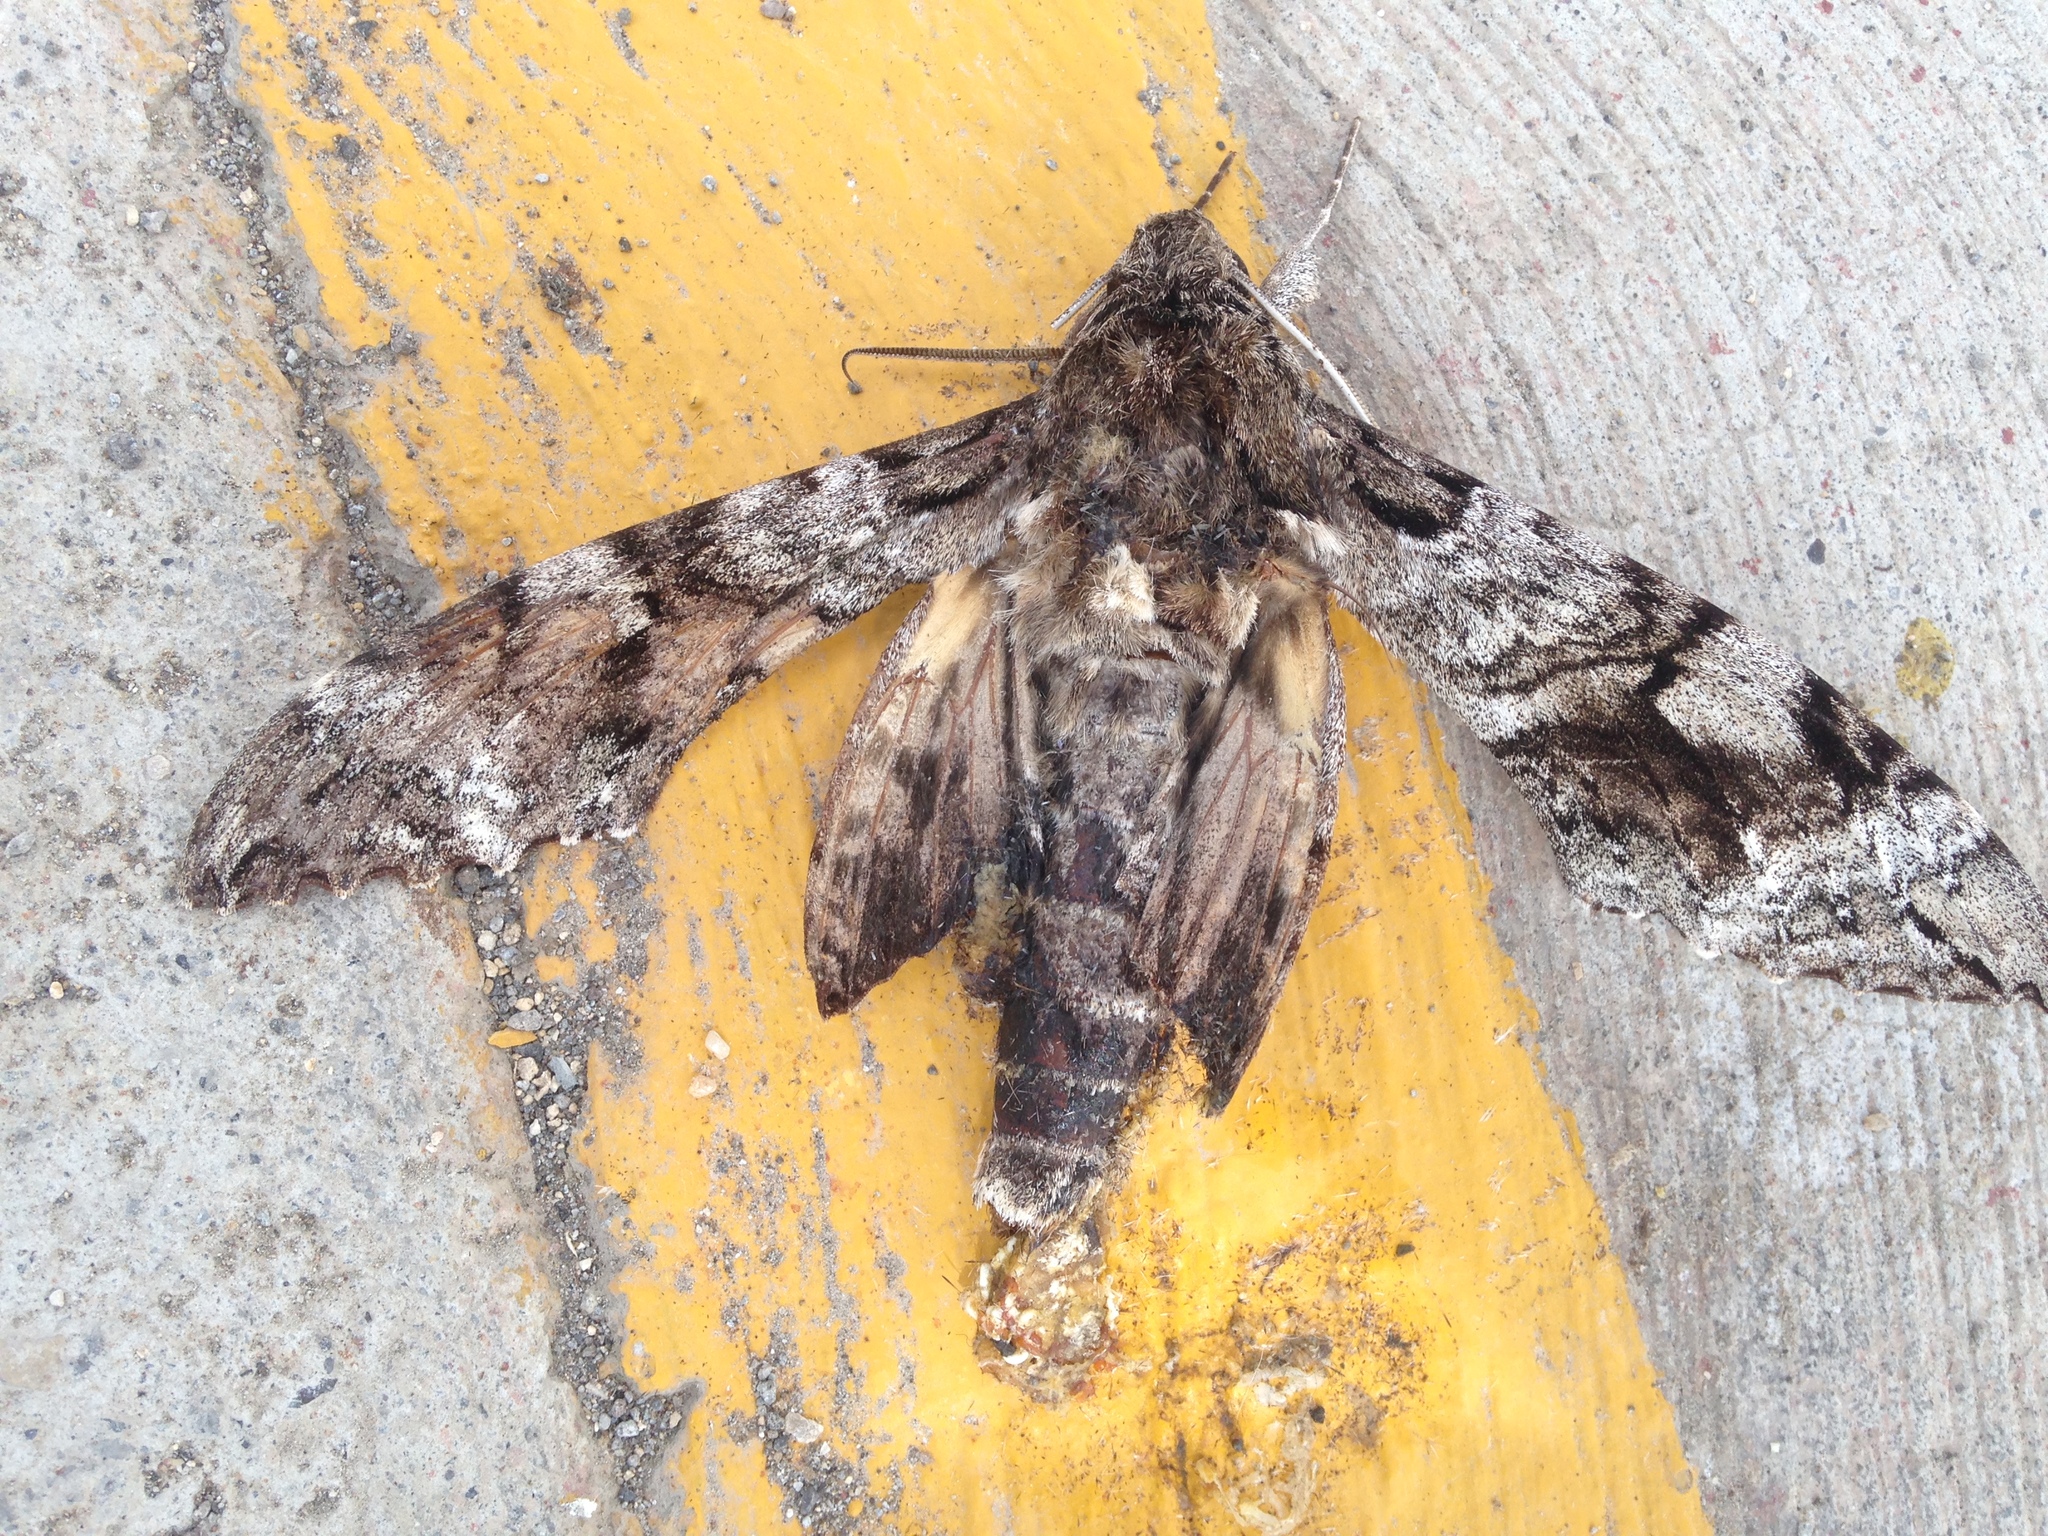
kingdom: Animalia
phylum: Arthropoda
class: Insecta
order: Lepidoptera
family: Sphingidae
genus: Pseudosphinx
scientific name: Pseudosphinx tetrio
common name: Tetrio sphinx
